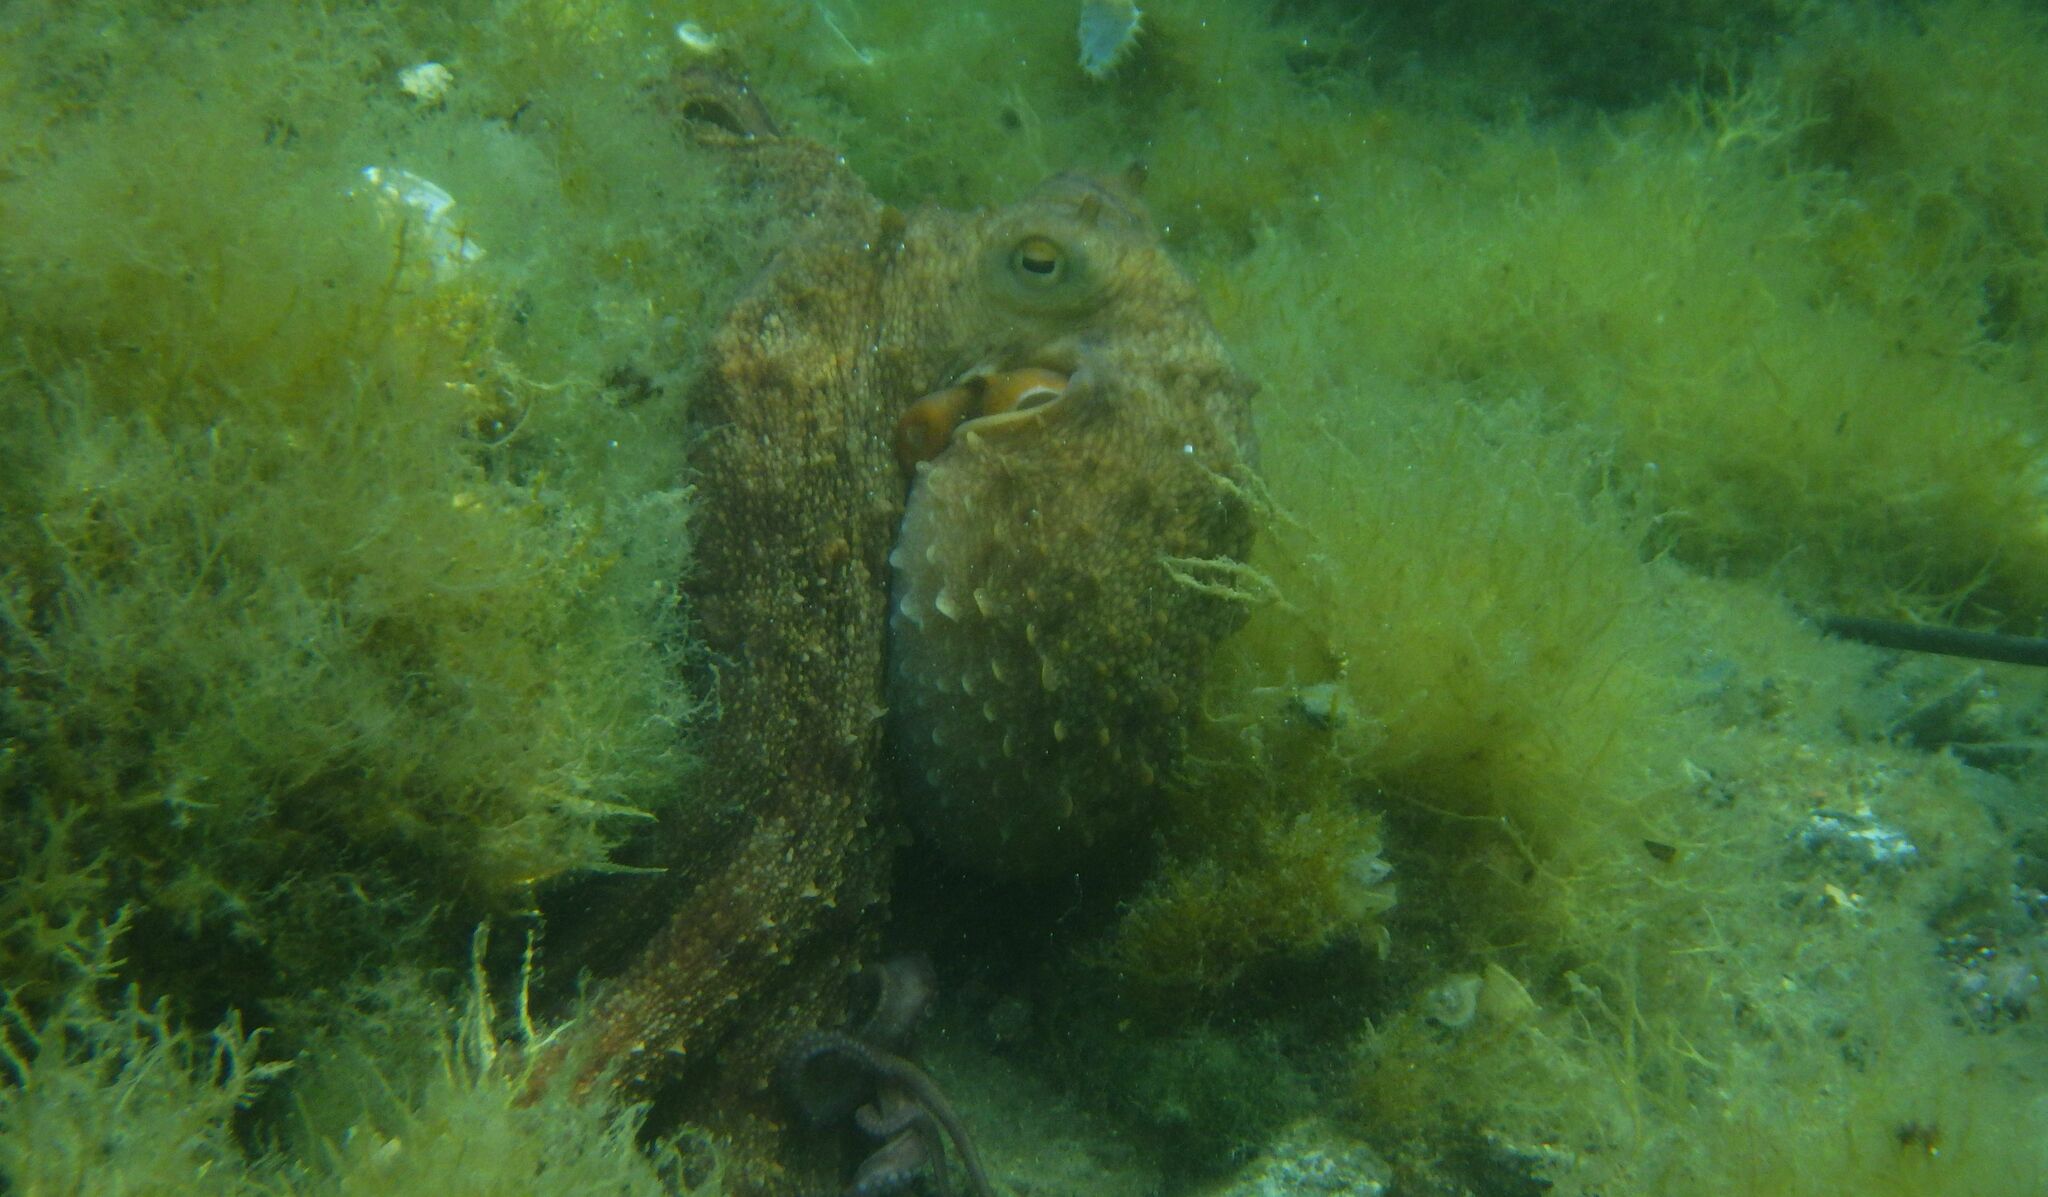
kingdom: Animalia
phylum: Mollusca
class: Cephalopoda
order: Octopoda
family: Octopodidae
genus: Octopus
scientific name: Octopus vulgaris
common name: Common octopus
